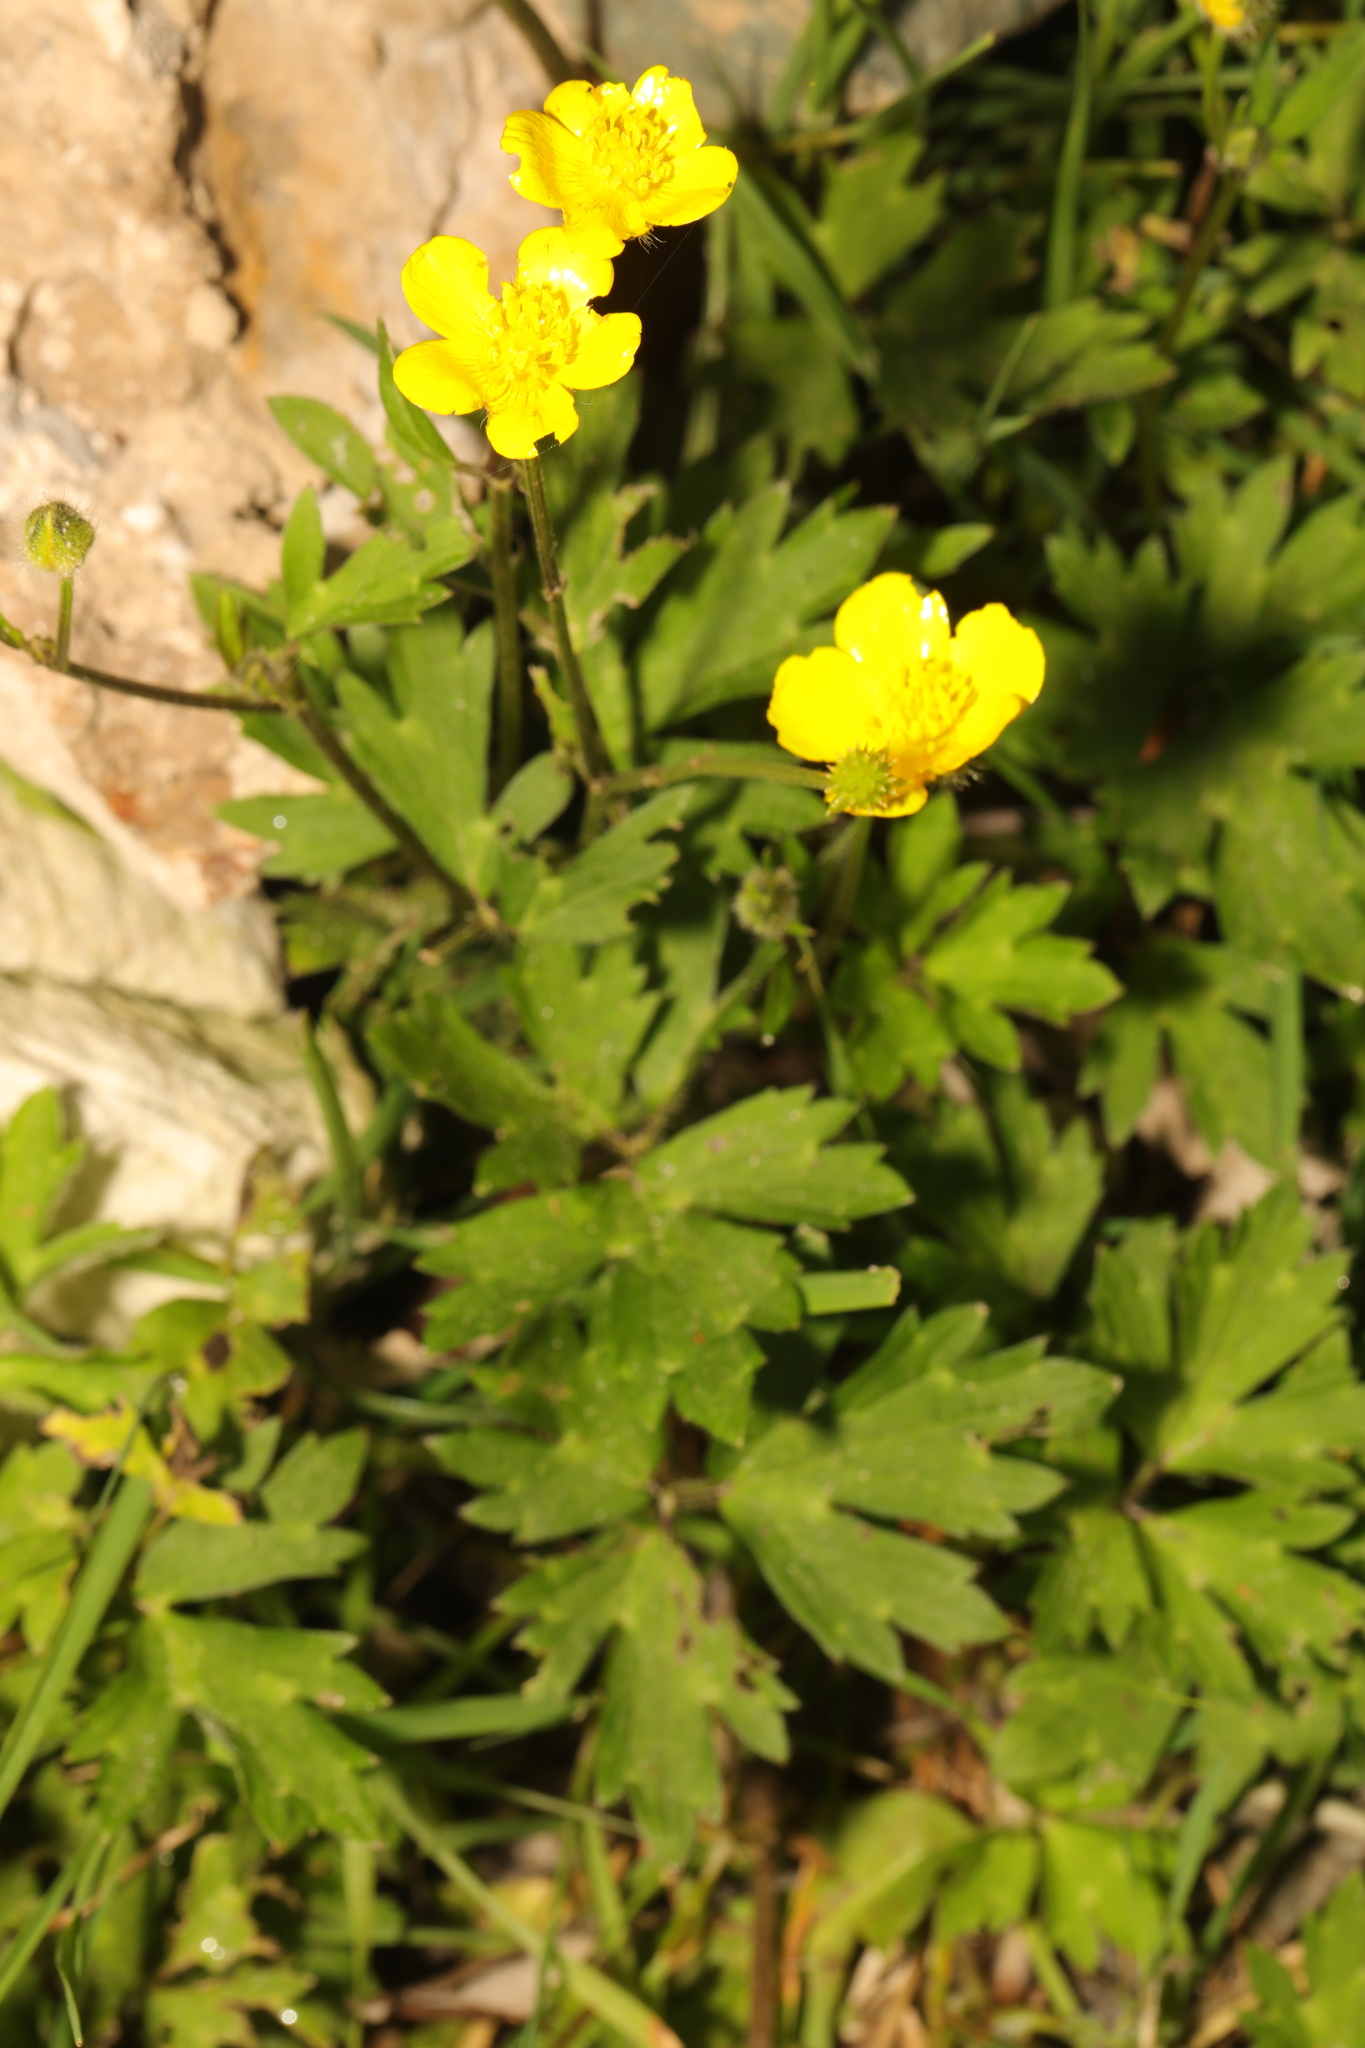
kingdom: Plantae
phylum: Tracheophyta
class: Magnoliopsida
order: Ranunculales
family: Ranunculaceae
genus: Ranunculus
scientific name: Ranunculus repens
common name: Creeping buttercup
